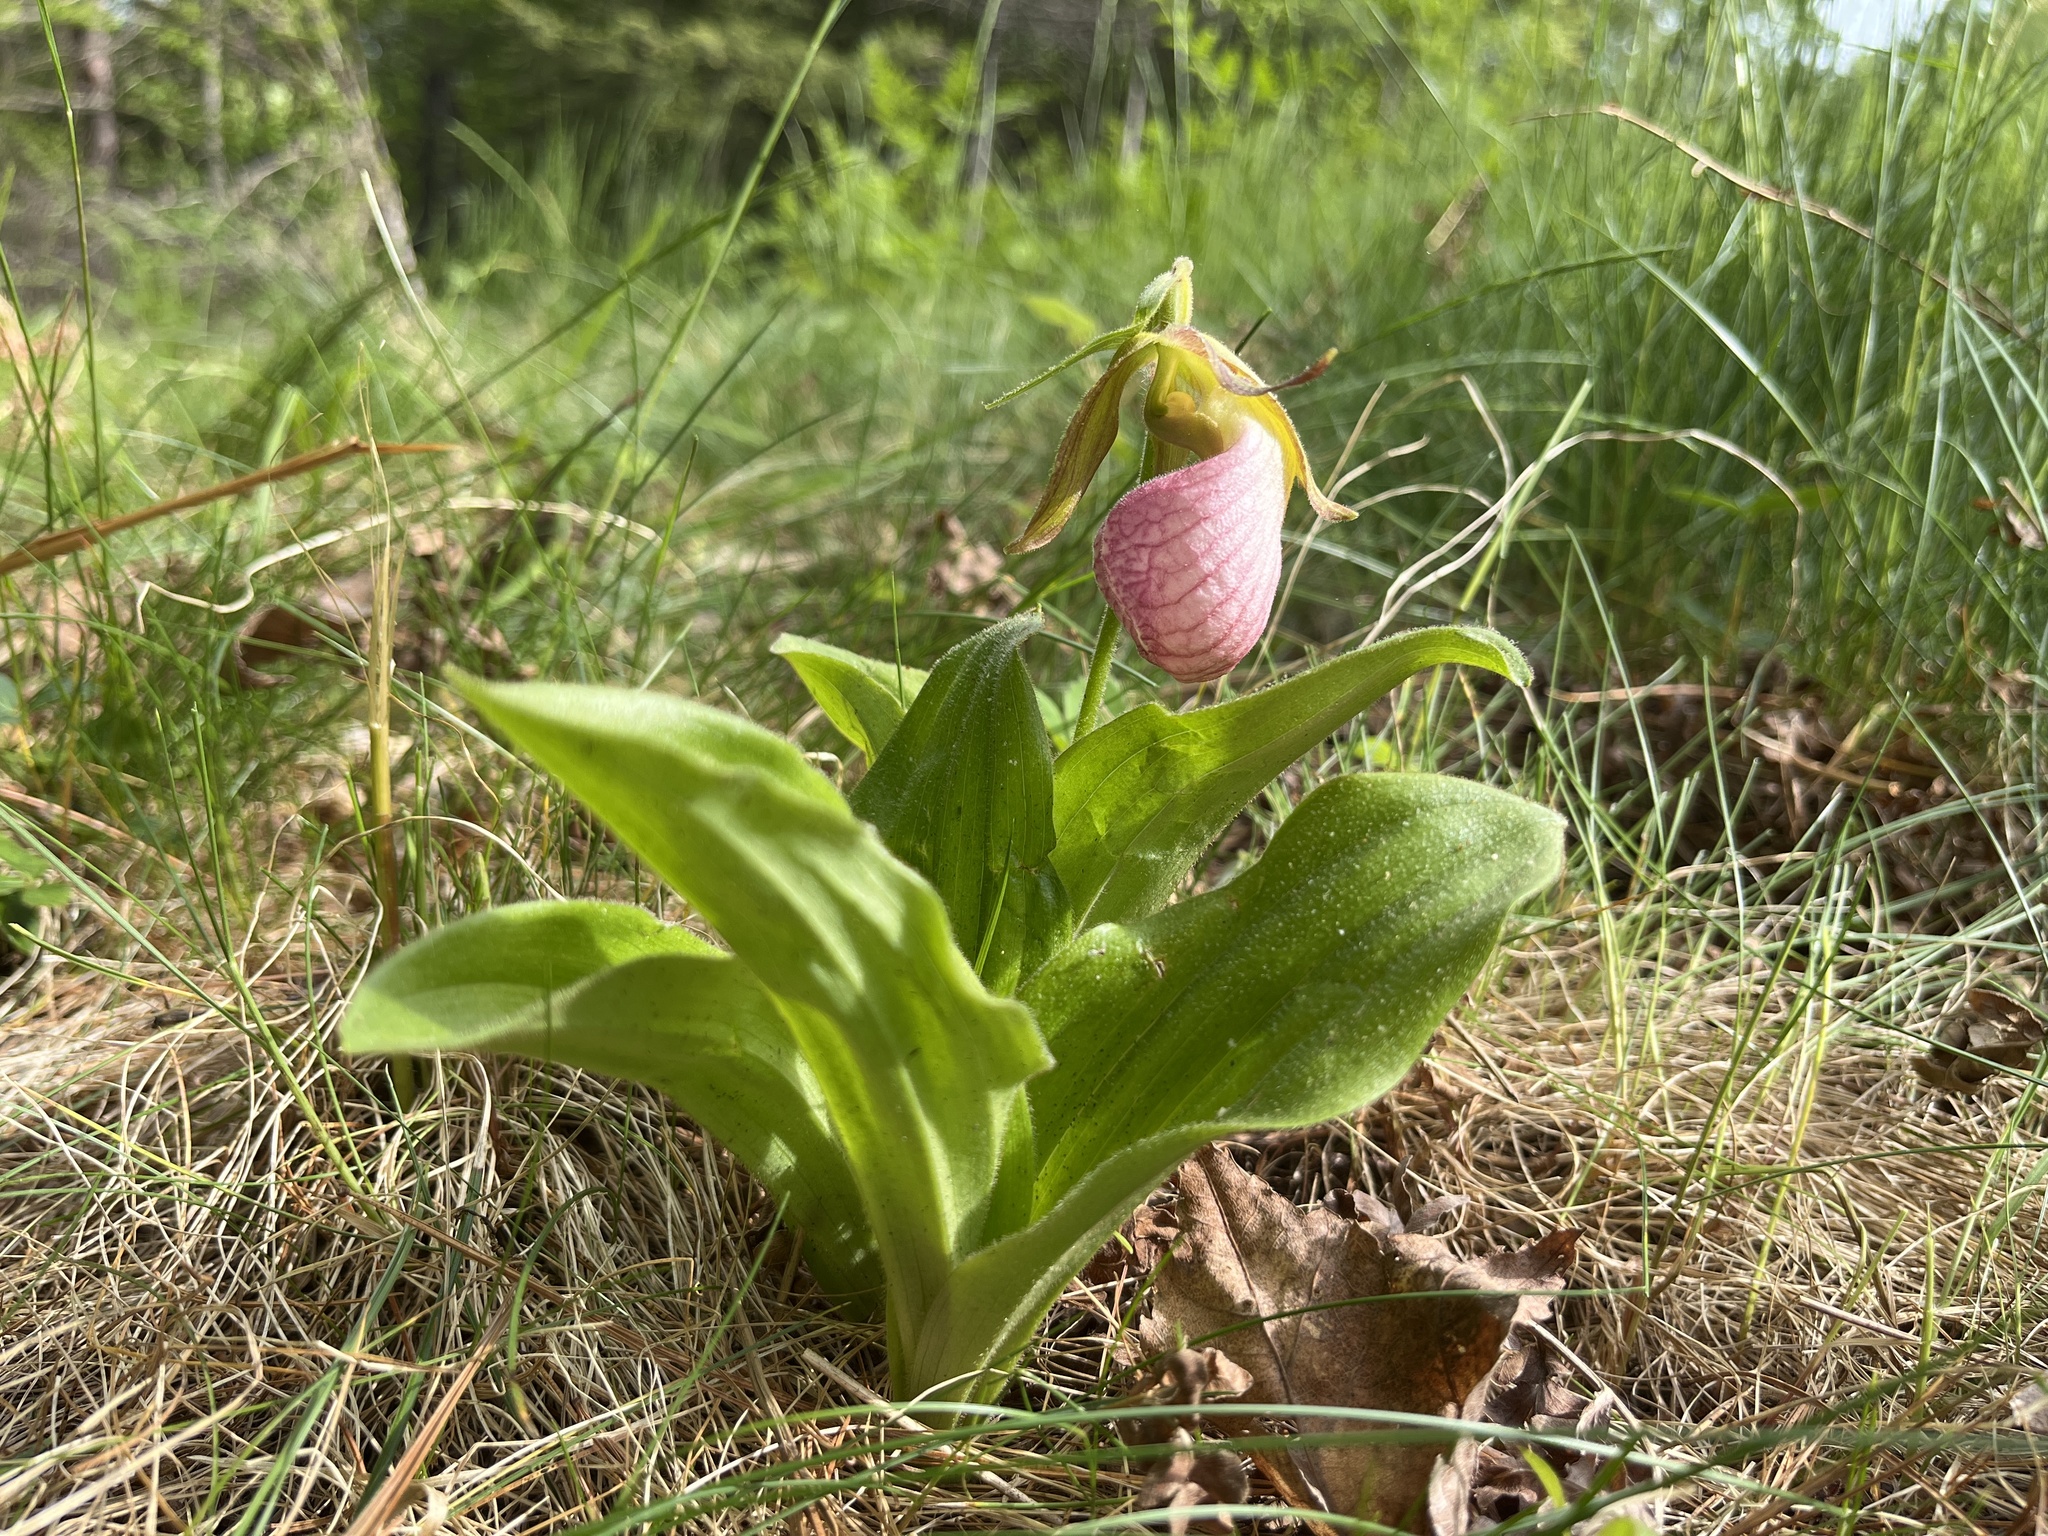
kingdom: Plantae
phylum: Tracheophyta
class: Liliopsida
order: Asparagales
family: Orchidaceae
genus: Cypripedium
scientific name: Cypripedium acaule
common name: Pink lady's-slipper
